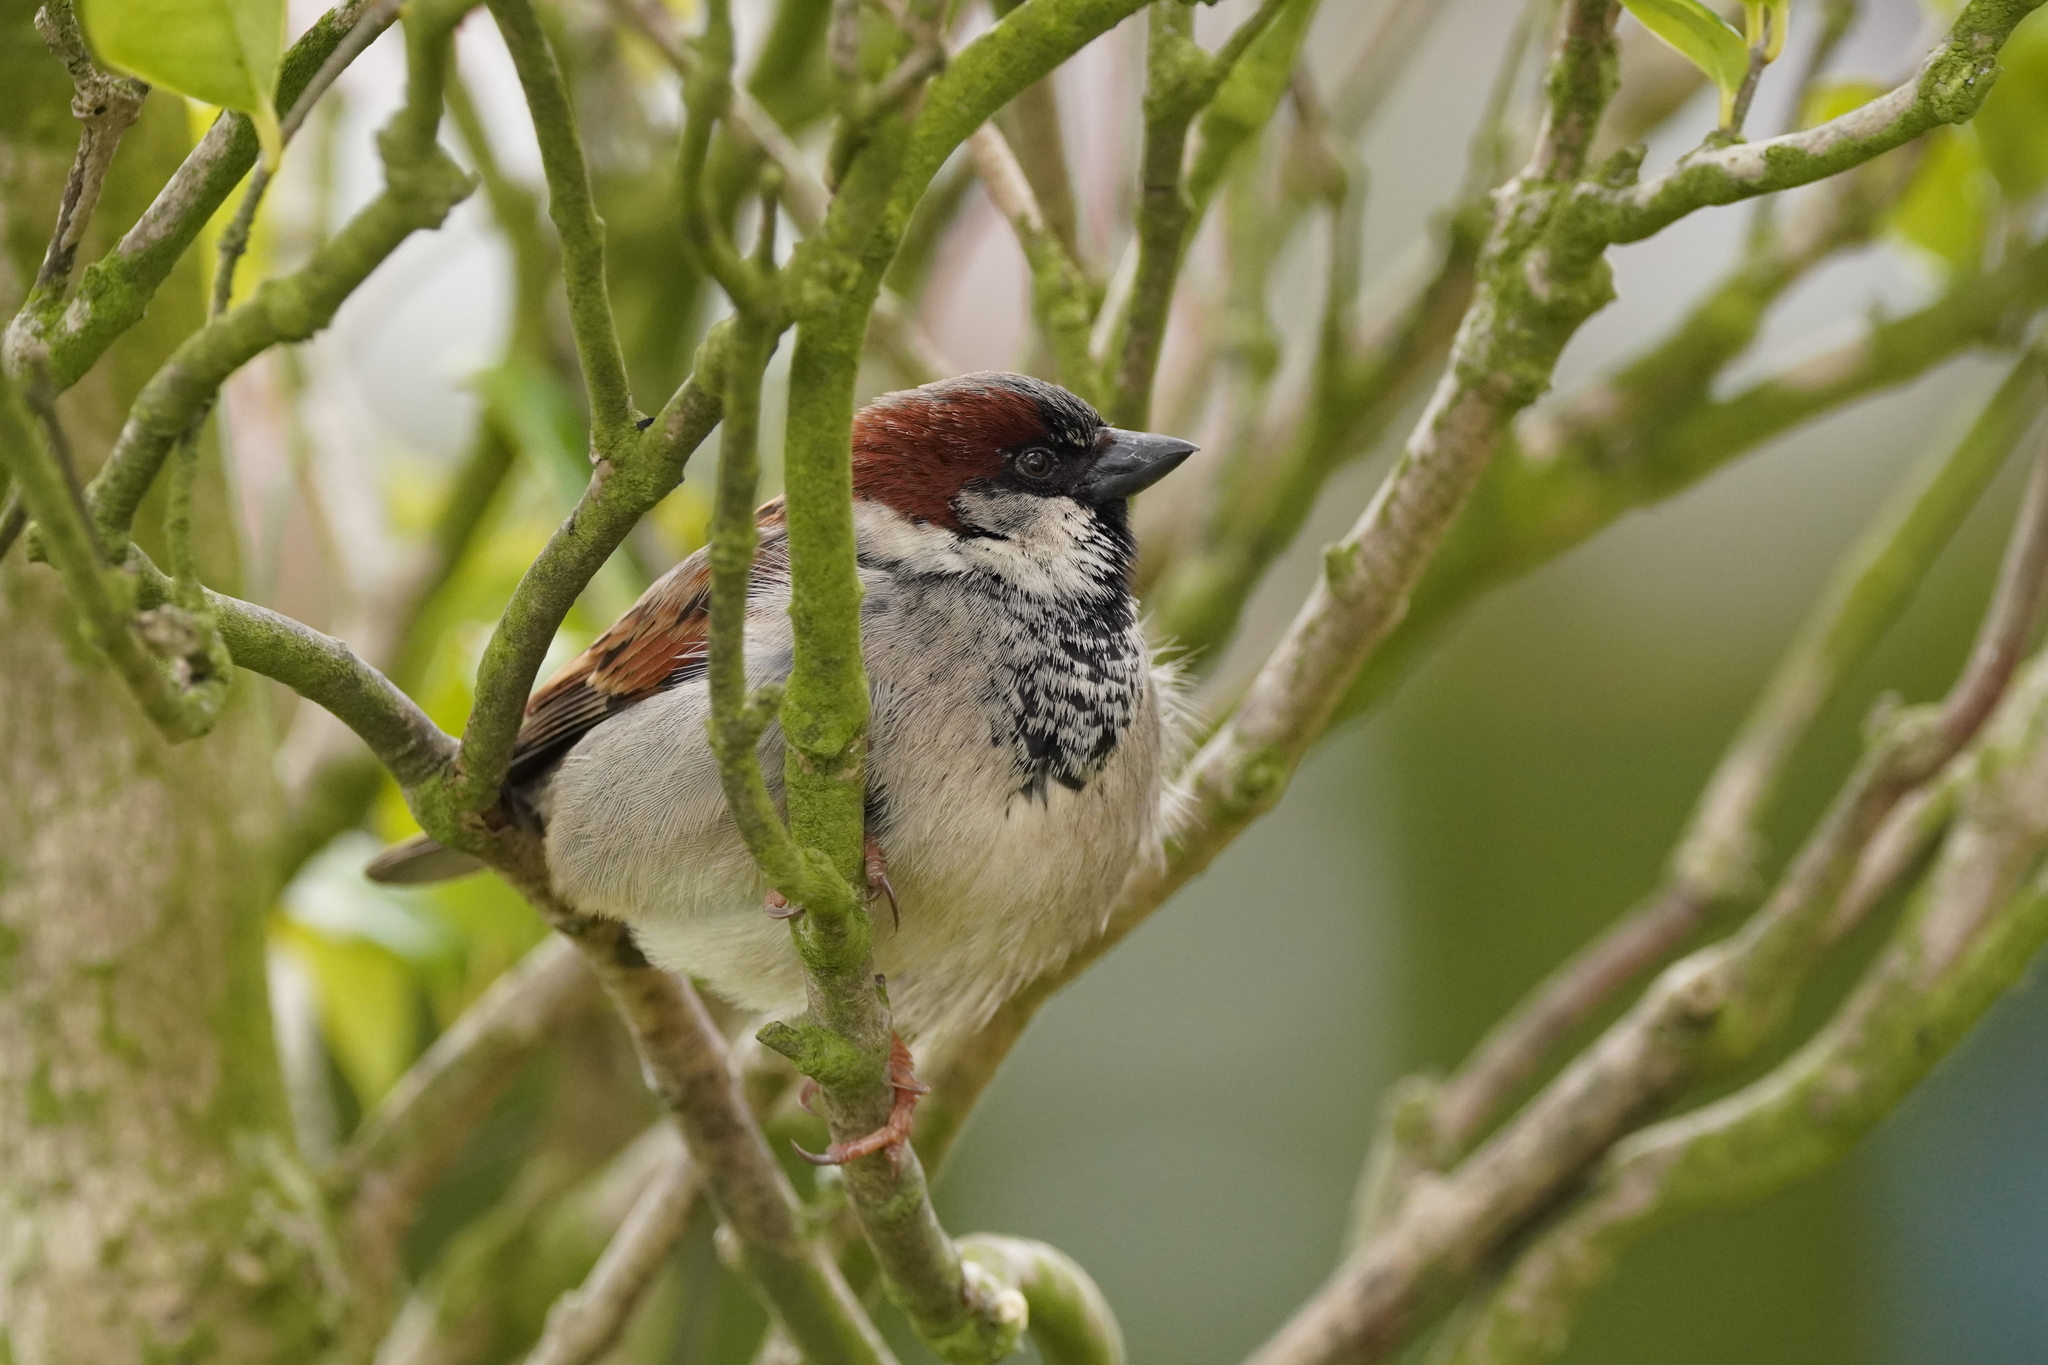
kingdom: Animalia
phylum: Chordata
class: Aves
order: Passeriformes
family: Passeridae
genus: Passer
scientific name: Passer domesticus
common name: House sparrow
